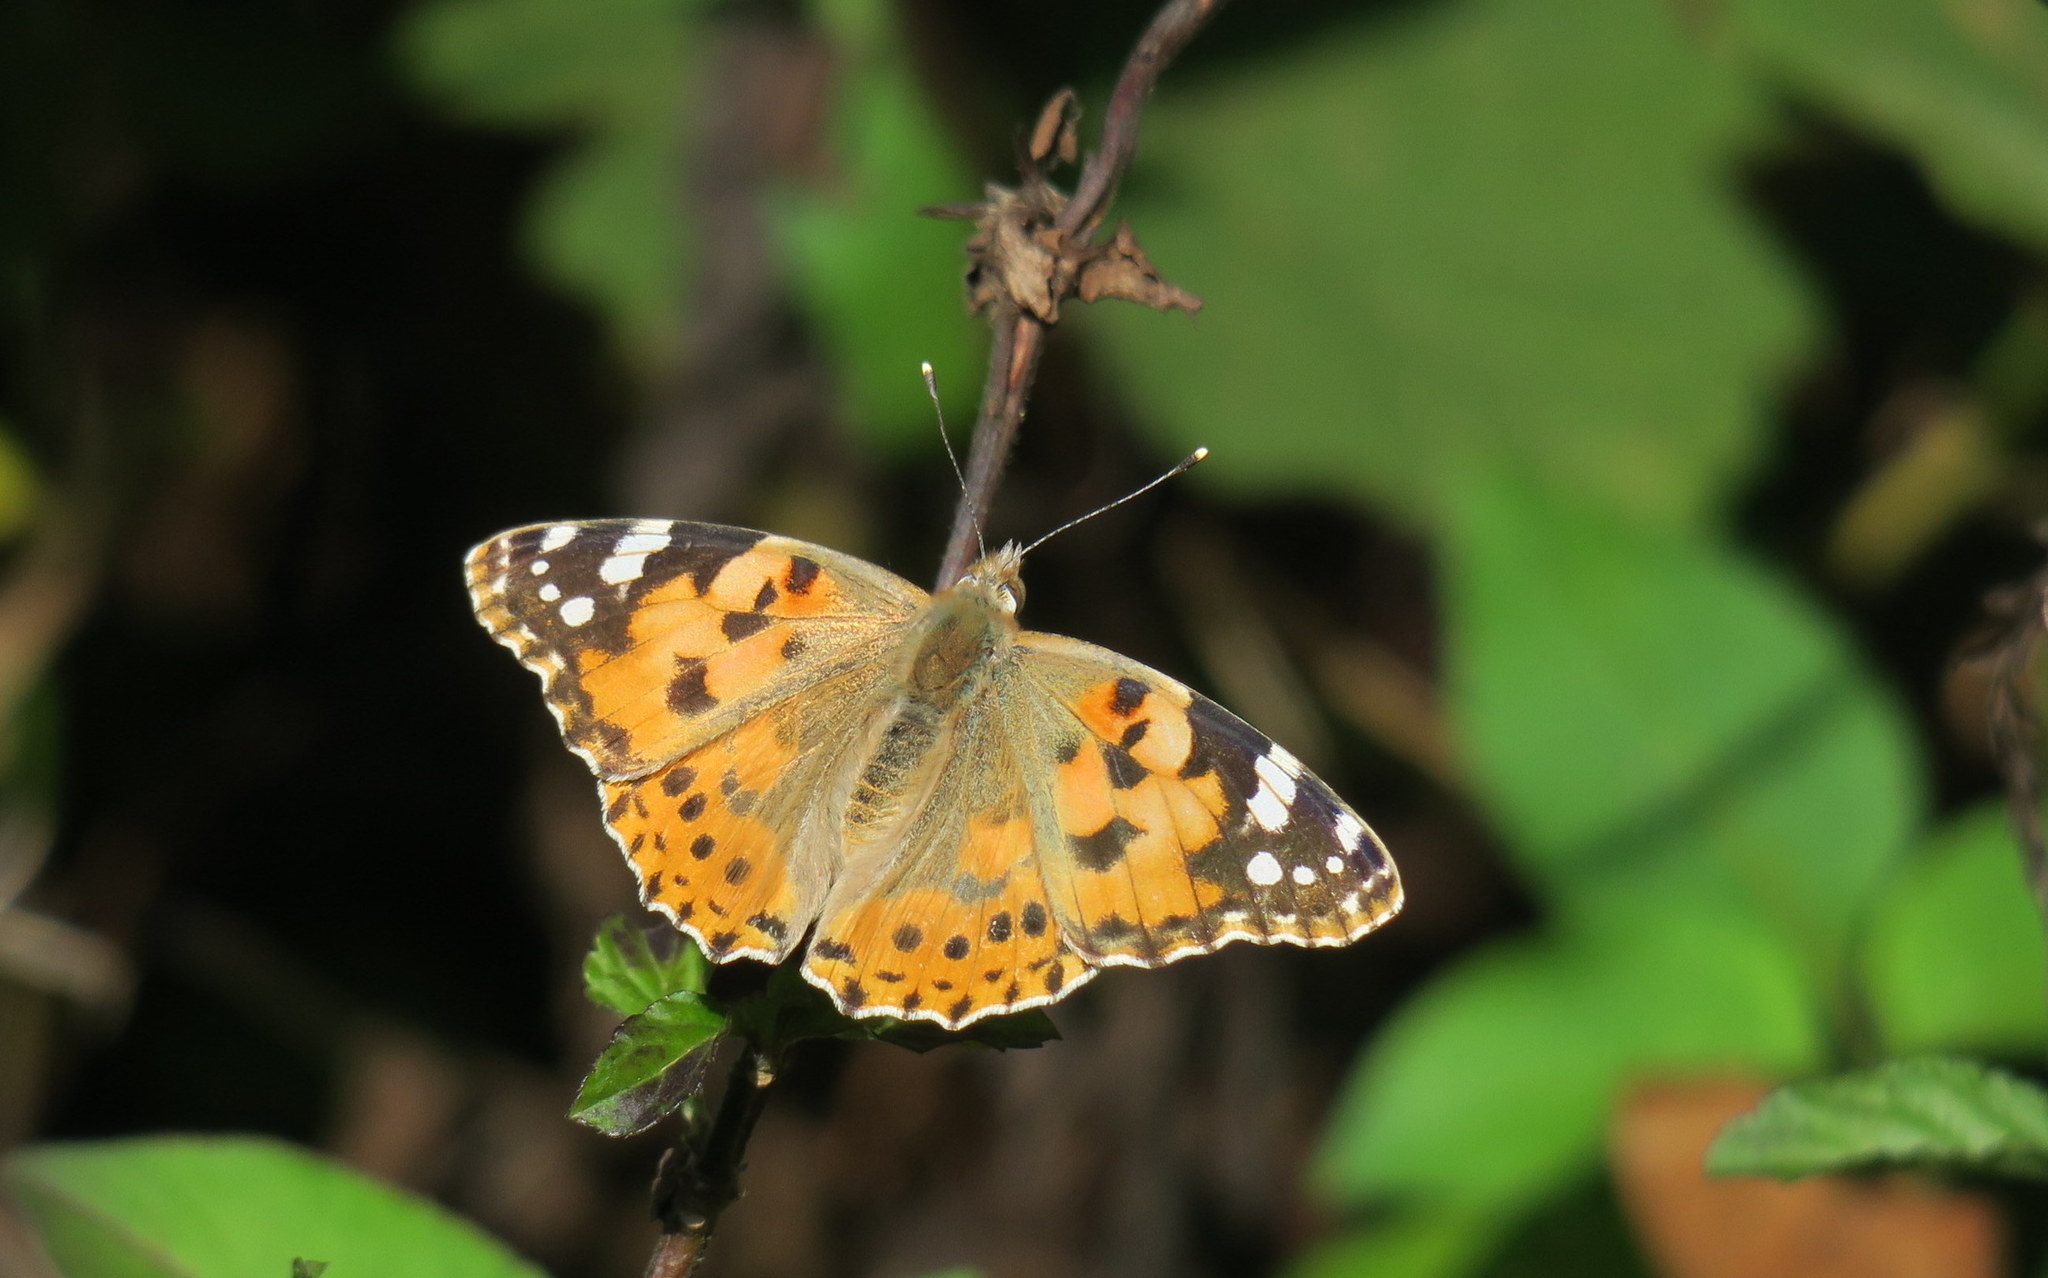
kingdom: Animalia
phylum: Arthropoda
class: Insecta
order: Lepidoptera
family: Nymphalidae
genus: Vanessa
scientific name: Vanessa cardui
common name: Painted lady
